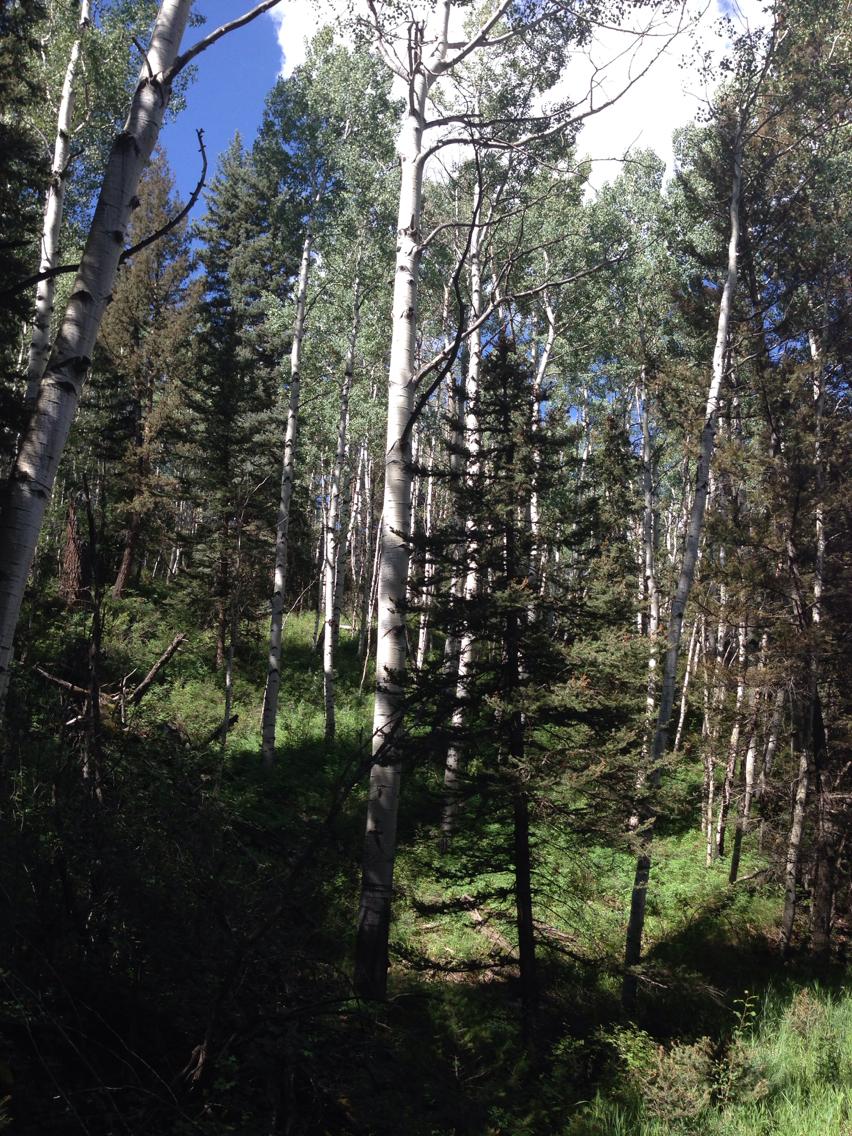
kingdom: Plantae
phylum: Tracheophyta
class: Magnoliopsida
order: Malpighiales
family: Salicaceae
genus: Populus
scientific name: Populus tremuloides
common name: Quaking aspen
